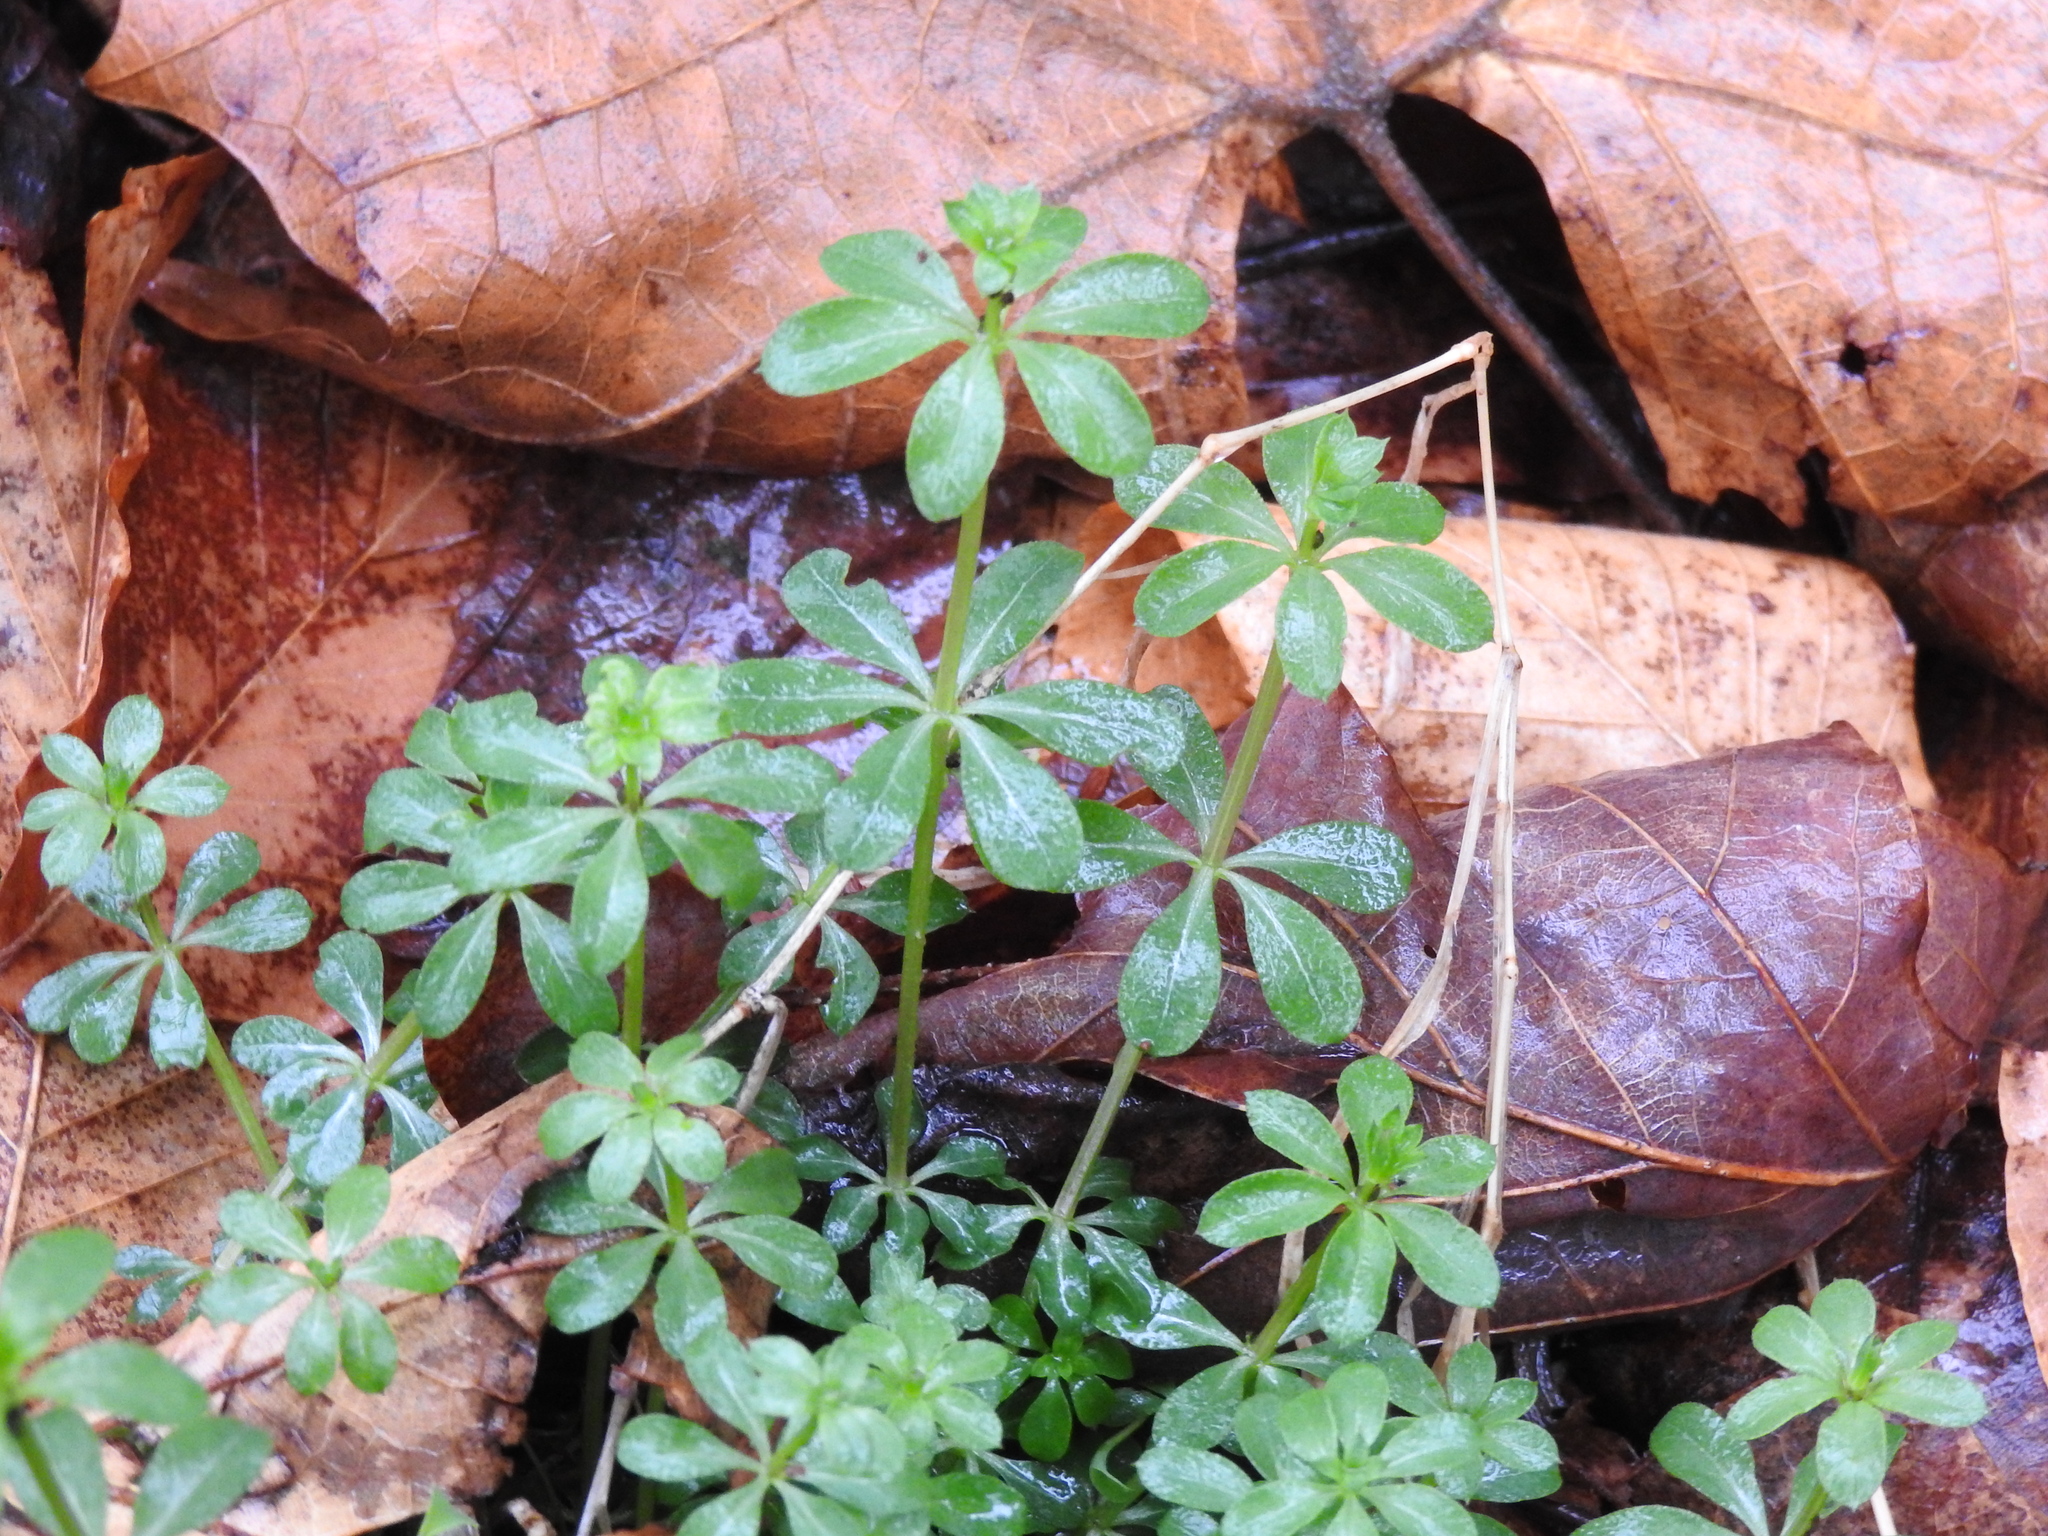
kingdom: Plantae
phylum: Tracheophyta
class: Magnoliopsida
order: Gentianales
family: Rubiaceae
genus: Galium
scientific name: Galium triflorum
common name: Fragrant bedstraw
